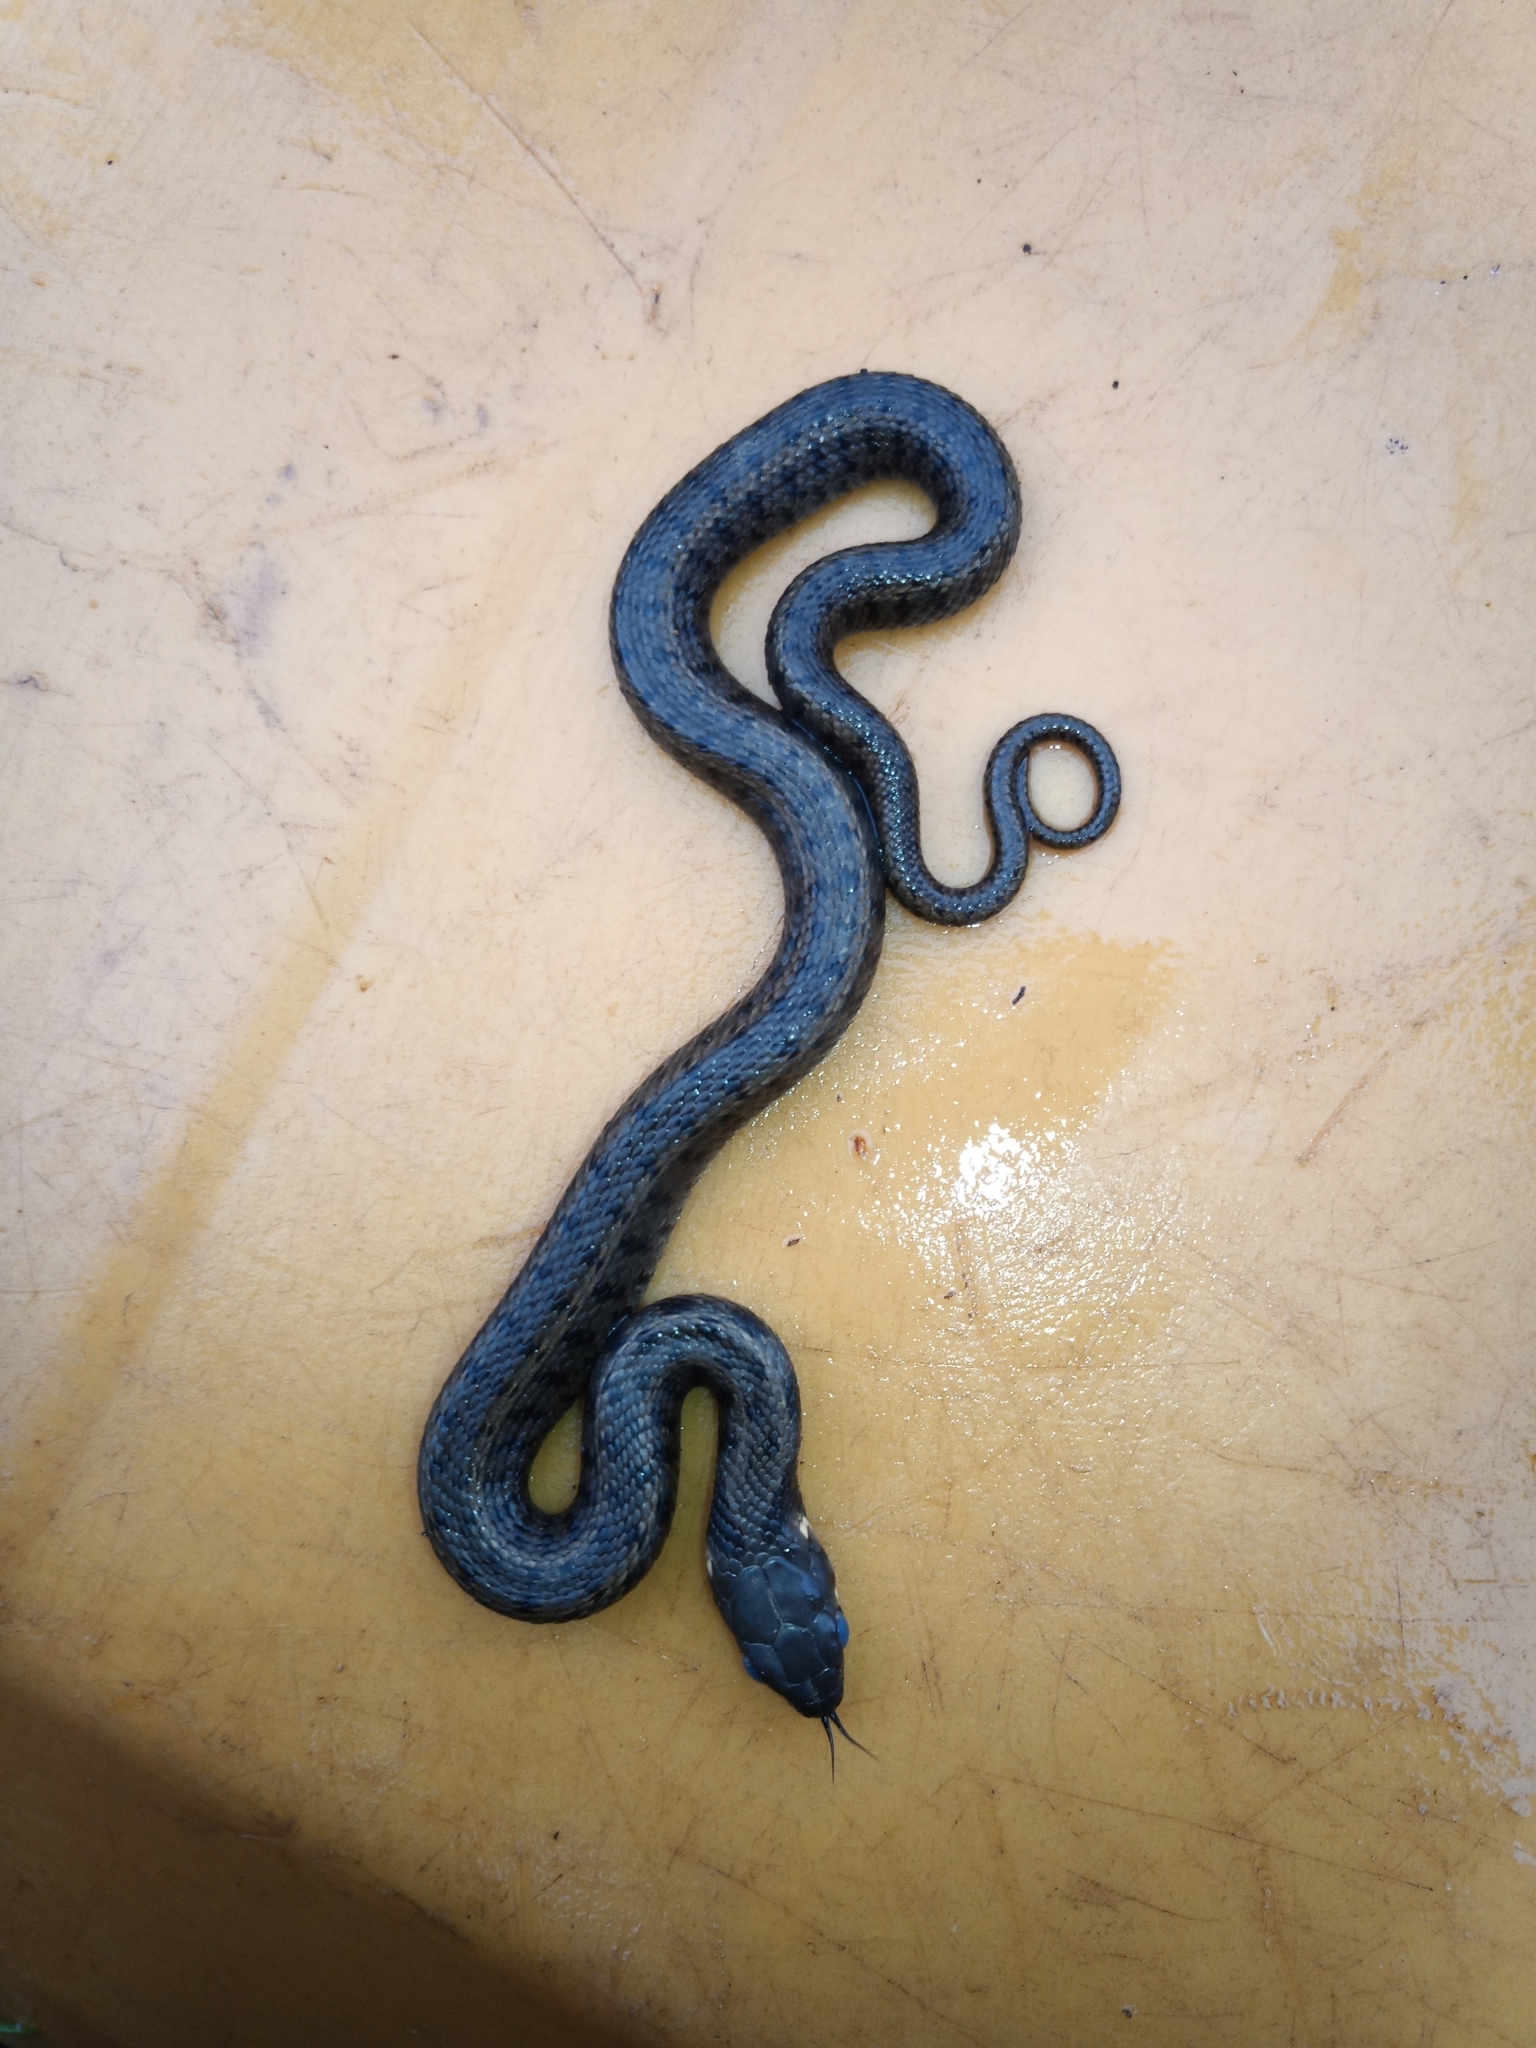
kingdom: Animalia
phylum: Chordata
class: Squamata
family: Colubridae
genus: Natrix
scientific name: Natrix natrix
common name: Grass snake
